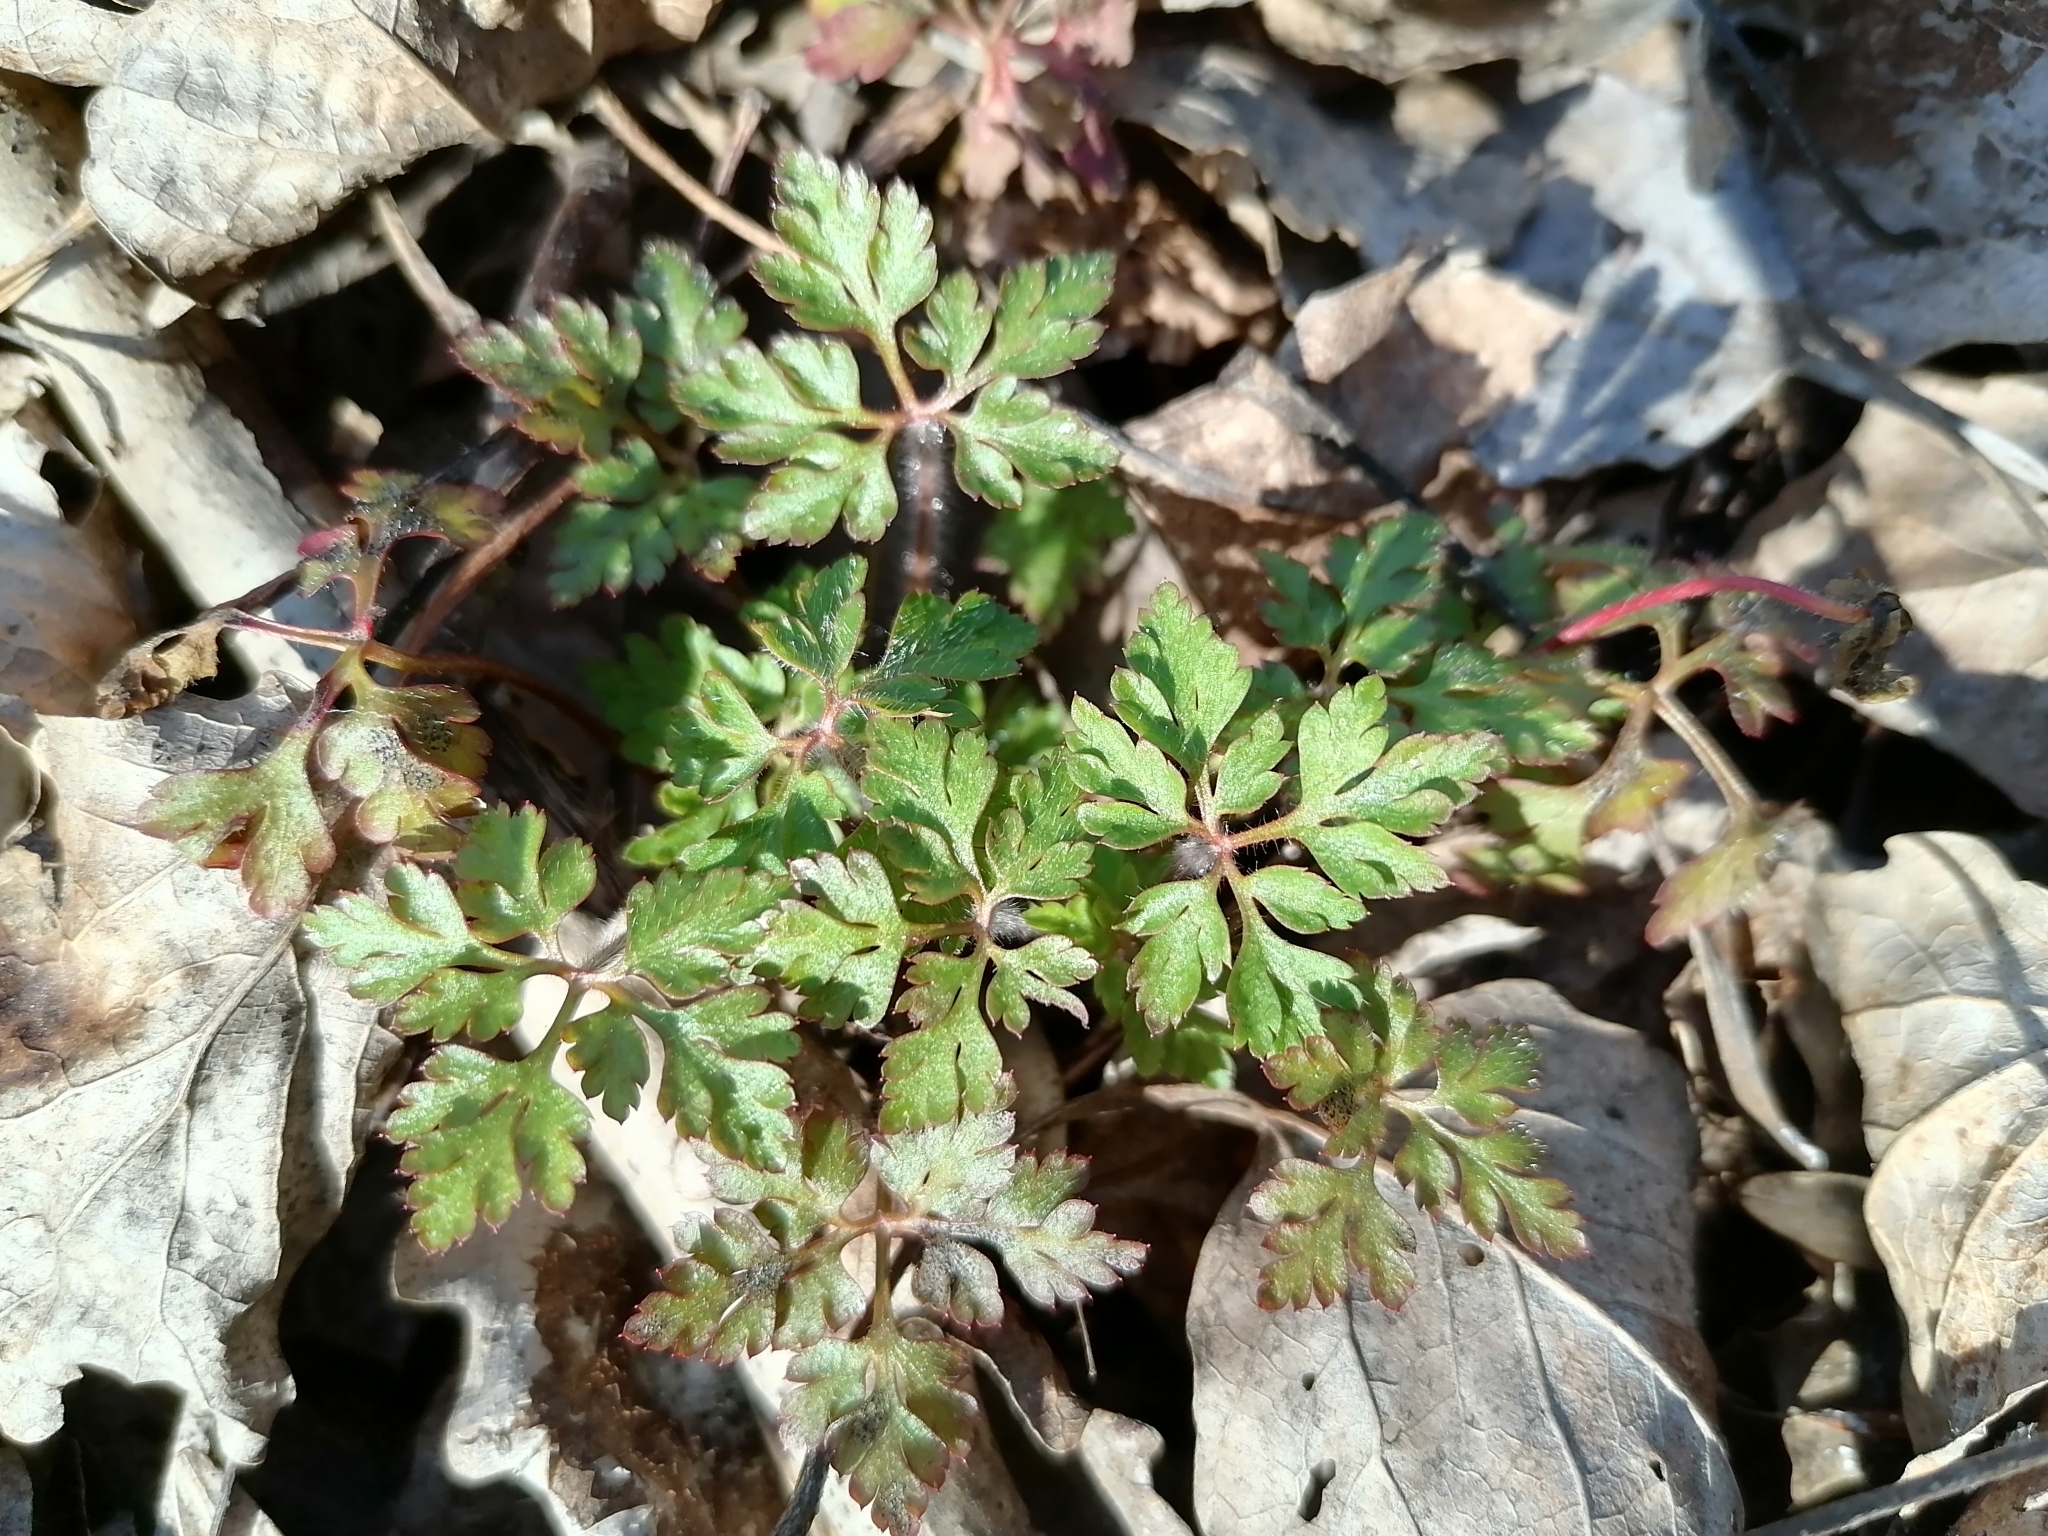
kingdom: Plantae
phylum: Tracheophyta
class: Magnoliopsida
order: Geraniales
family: Geraniaceae
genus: Geranium
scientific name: Geranium robertianum
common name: Herb-robert
